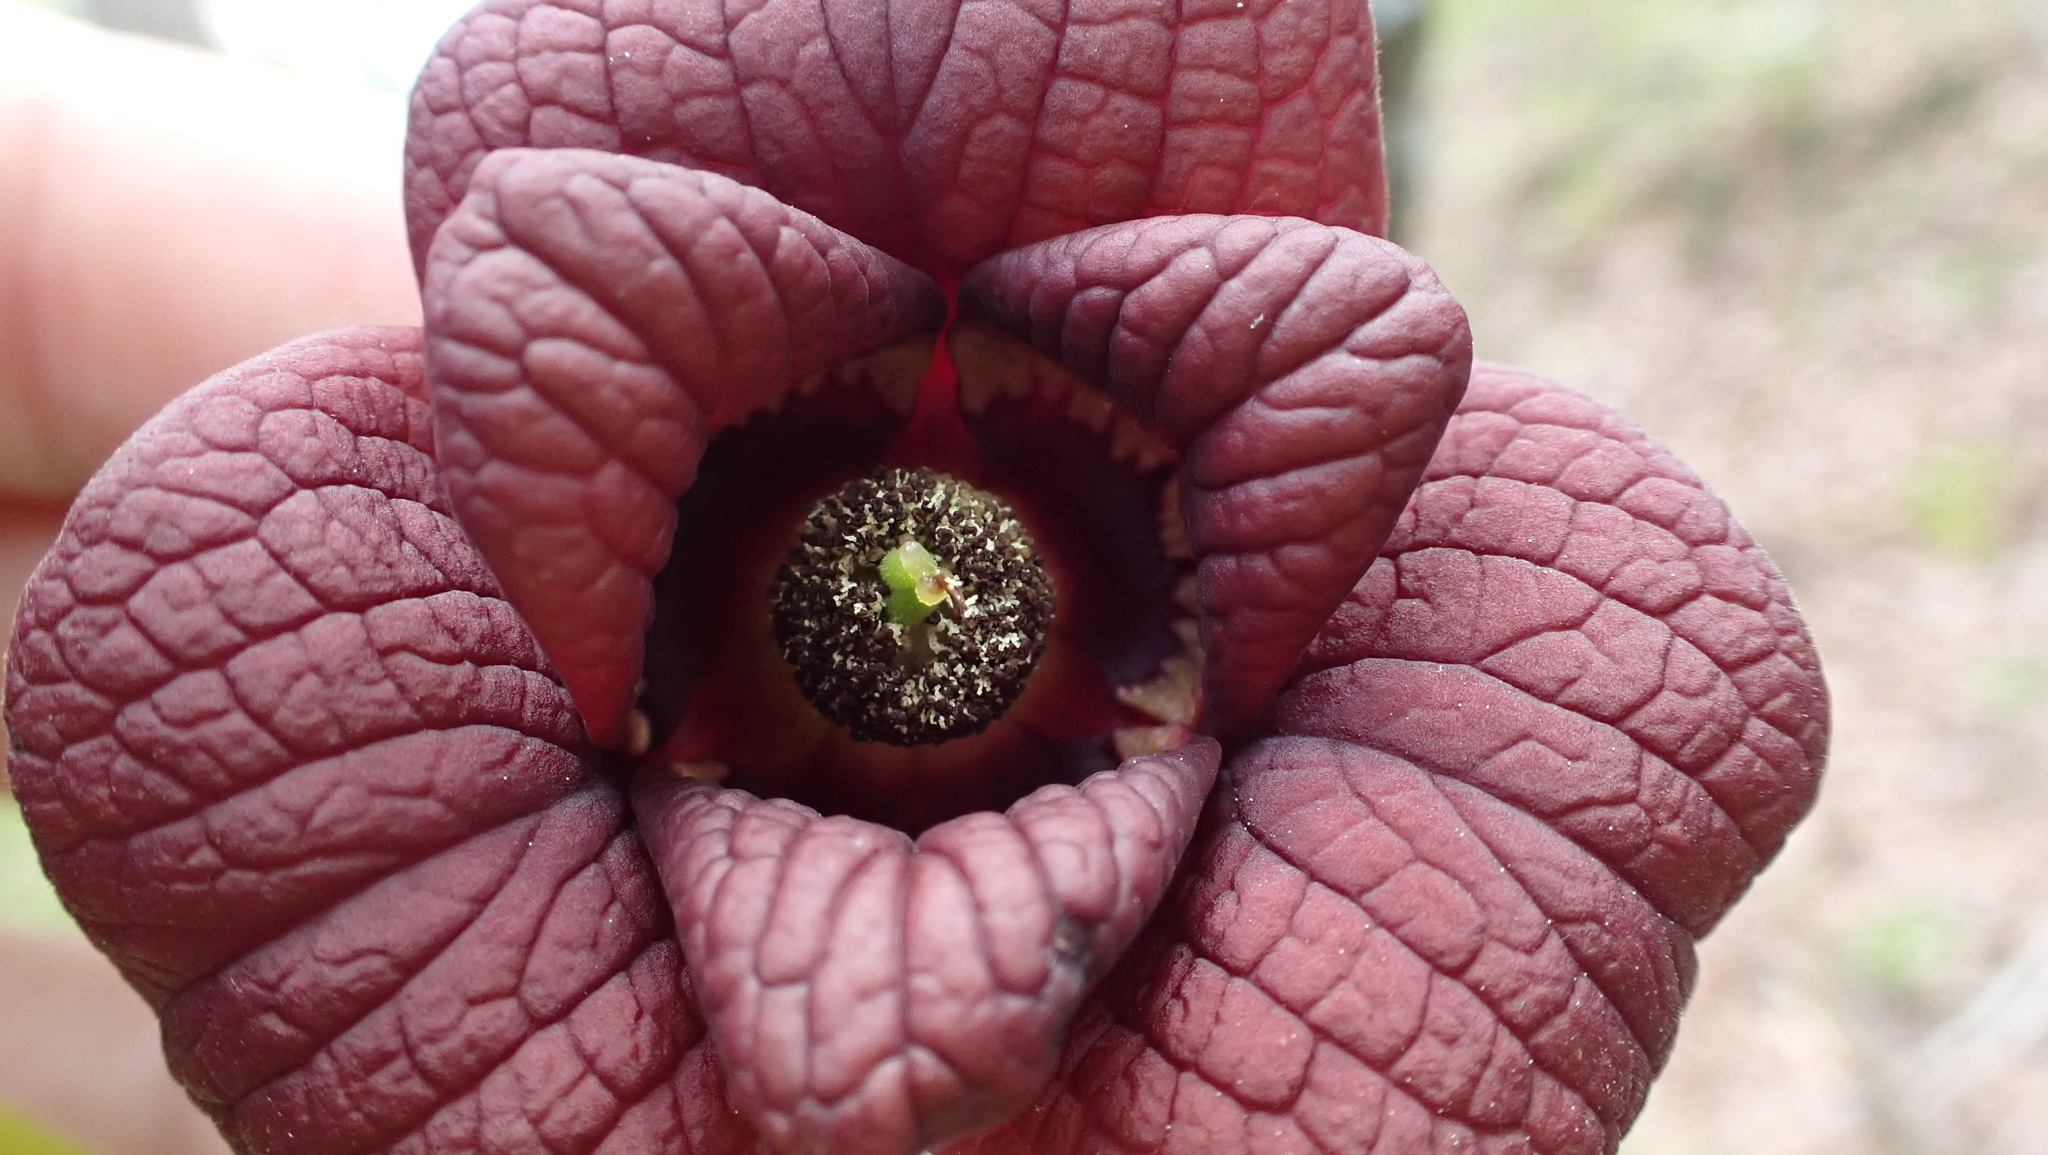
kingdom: Plantae
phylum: Tracheophyta
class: Magnoliopsida
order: Magnoliales
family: Annonaceae
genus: Asimina
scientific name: Asimina triloba
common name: Dog-banana
